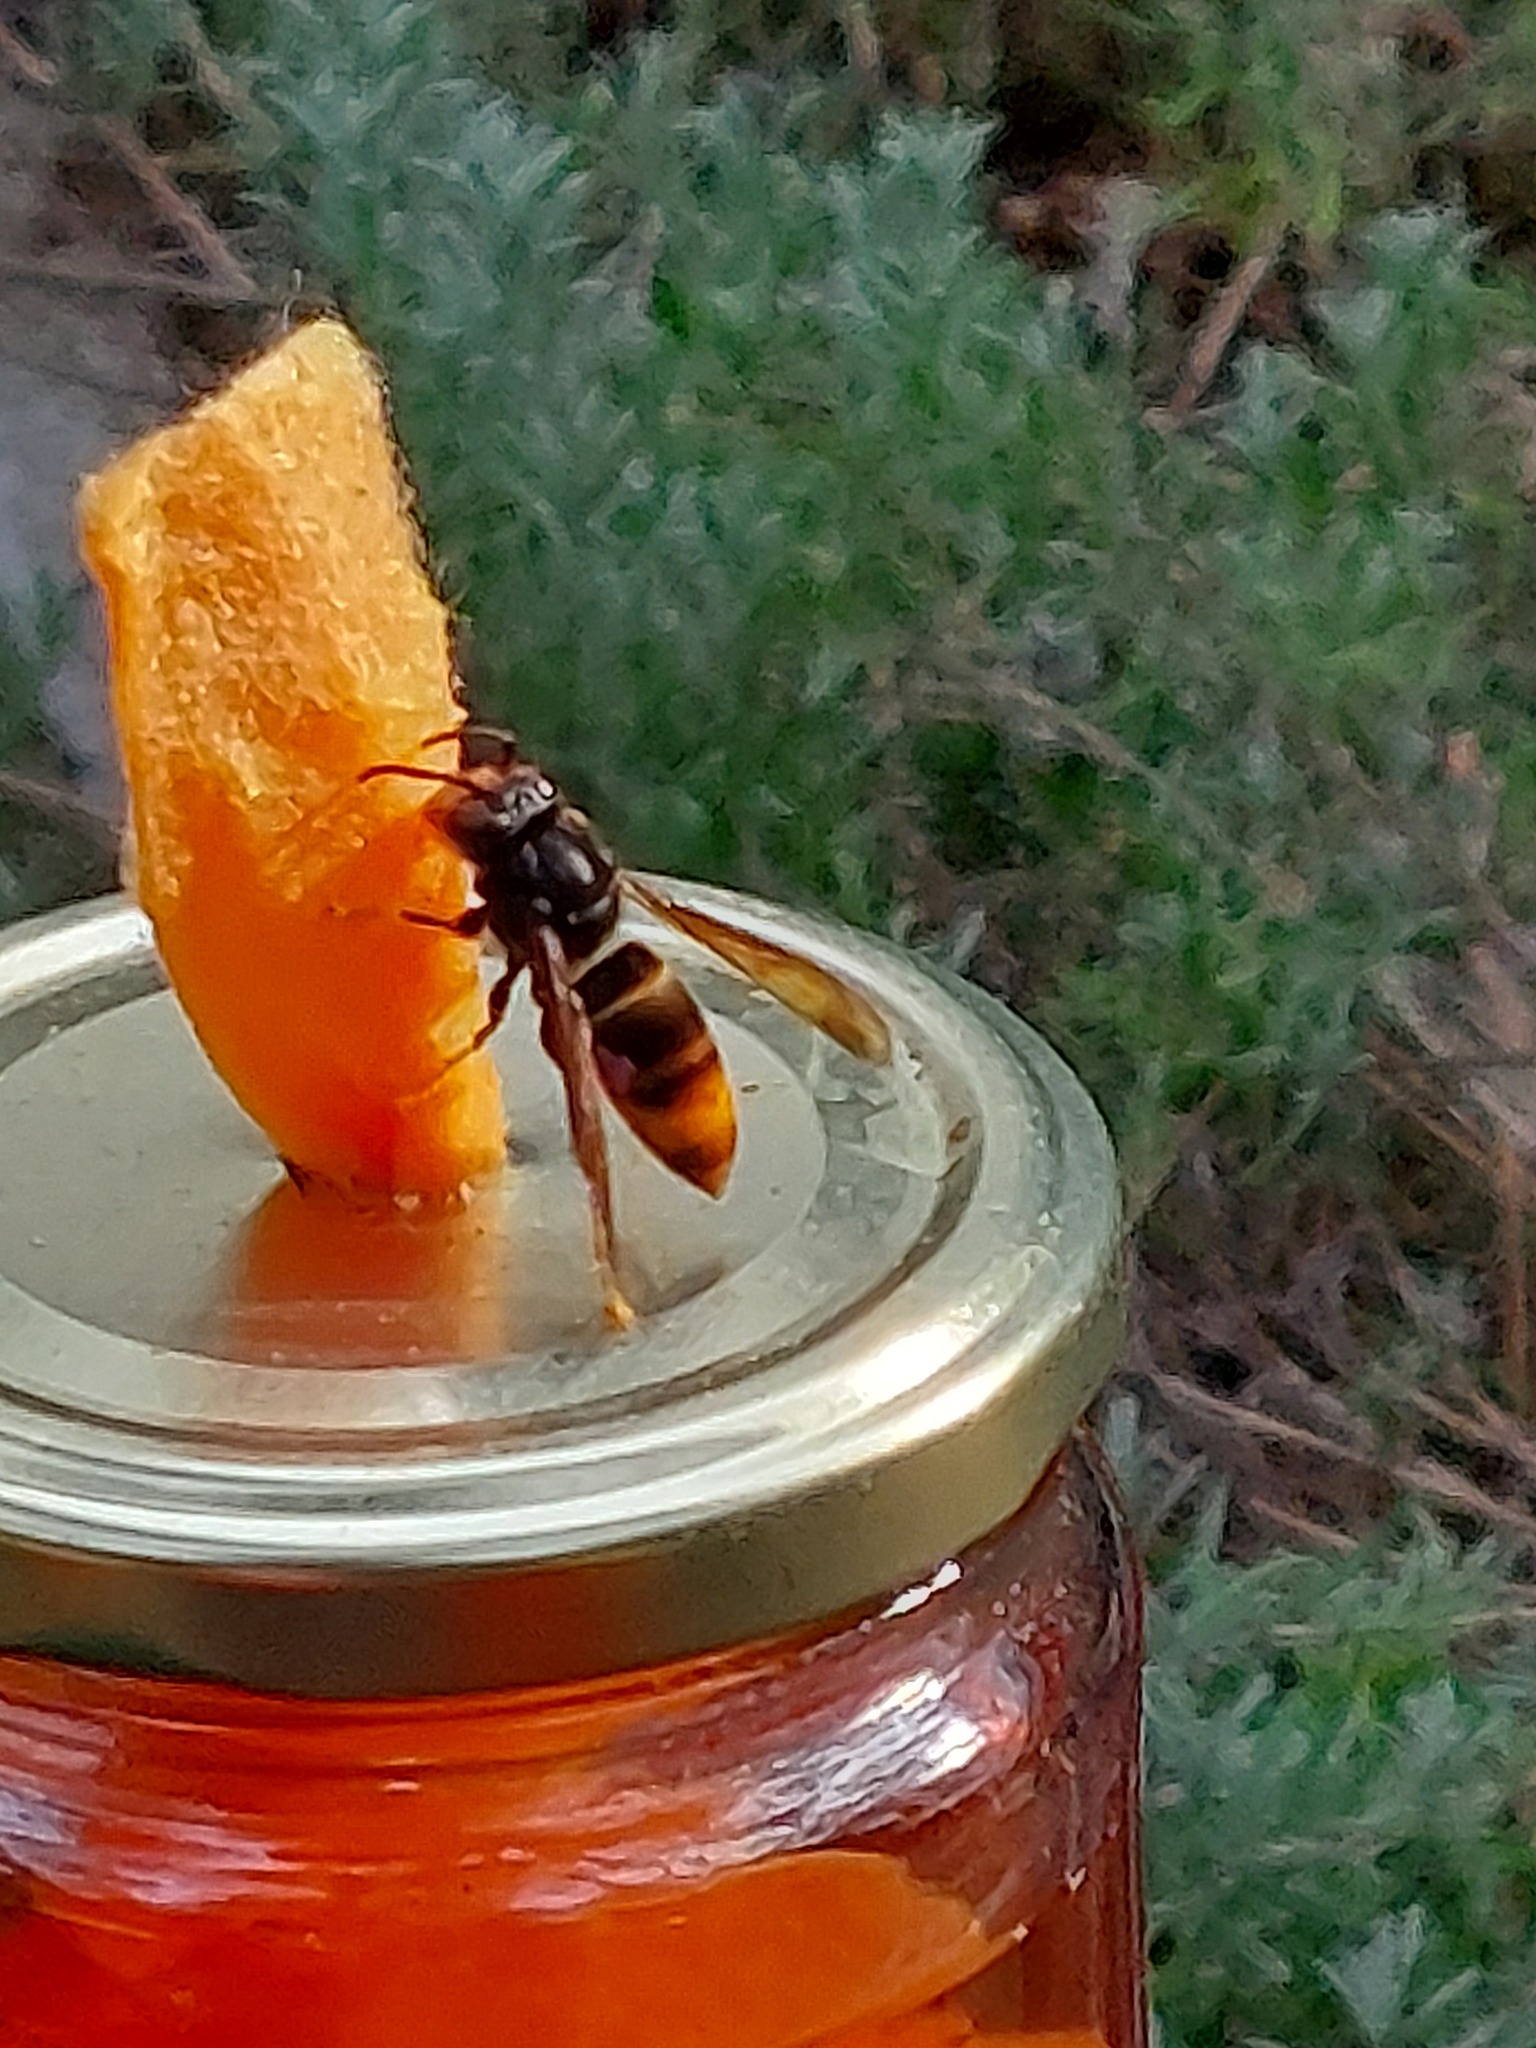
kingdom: Animalia
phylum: Arthropoda
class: Insecta
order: Hymenoptera
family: Vespidae
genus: Vespa
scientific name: Vespa velutina
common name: Asian hornet
